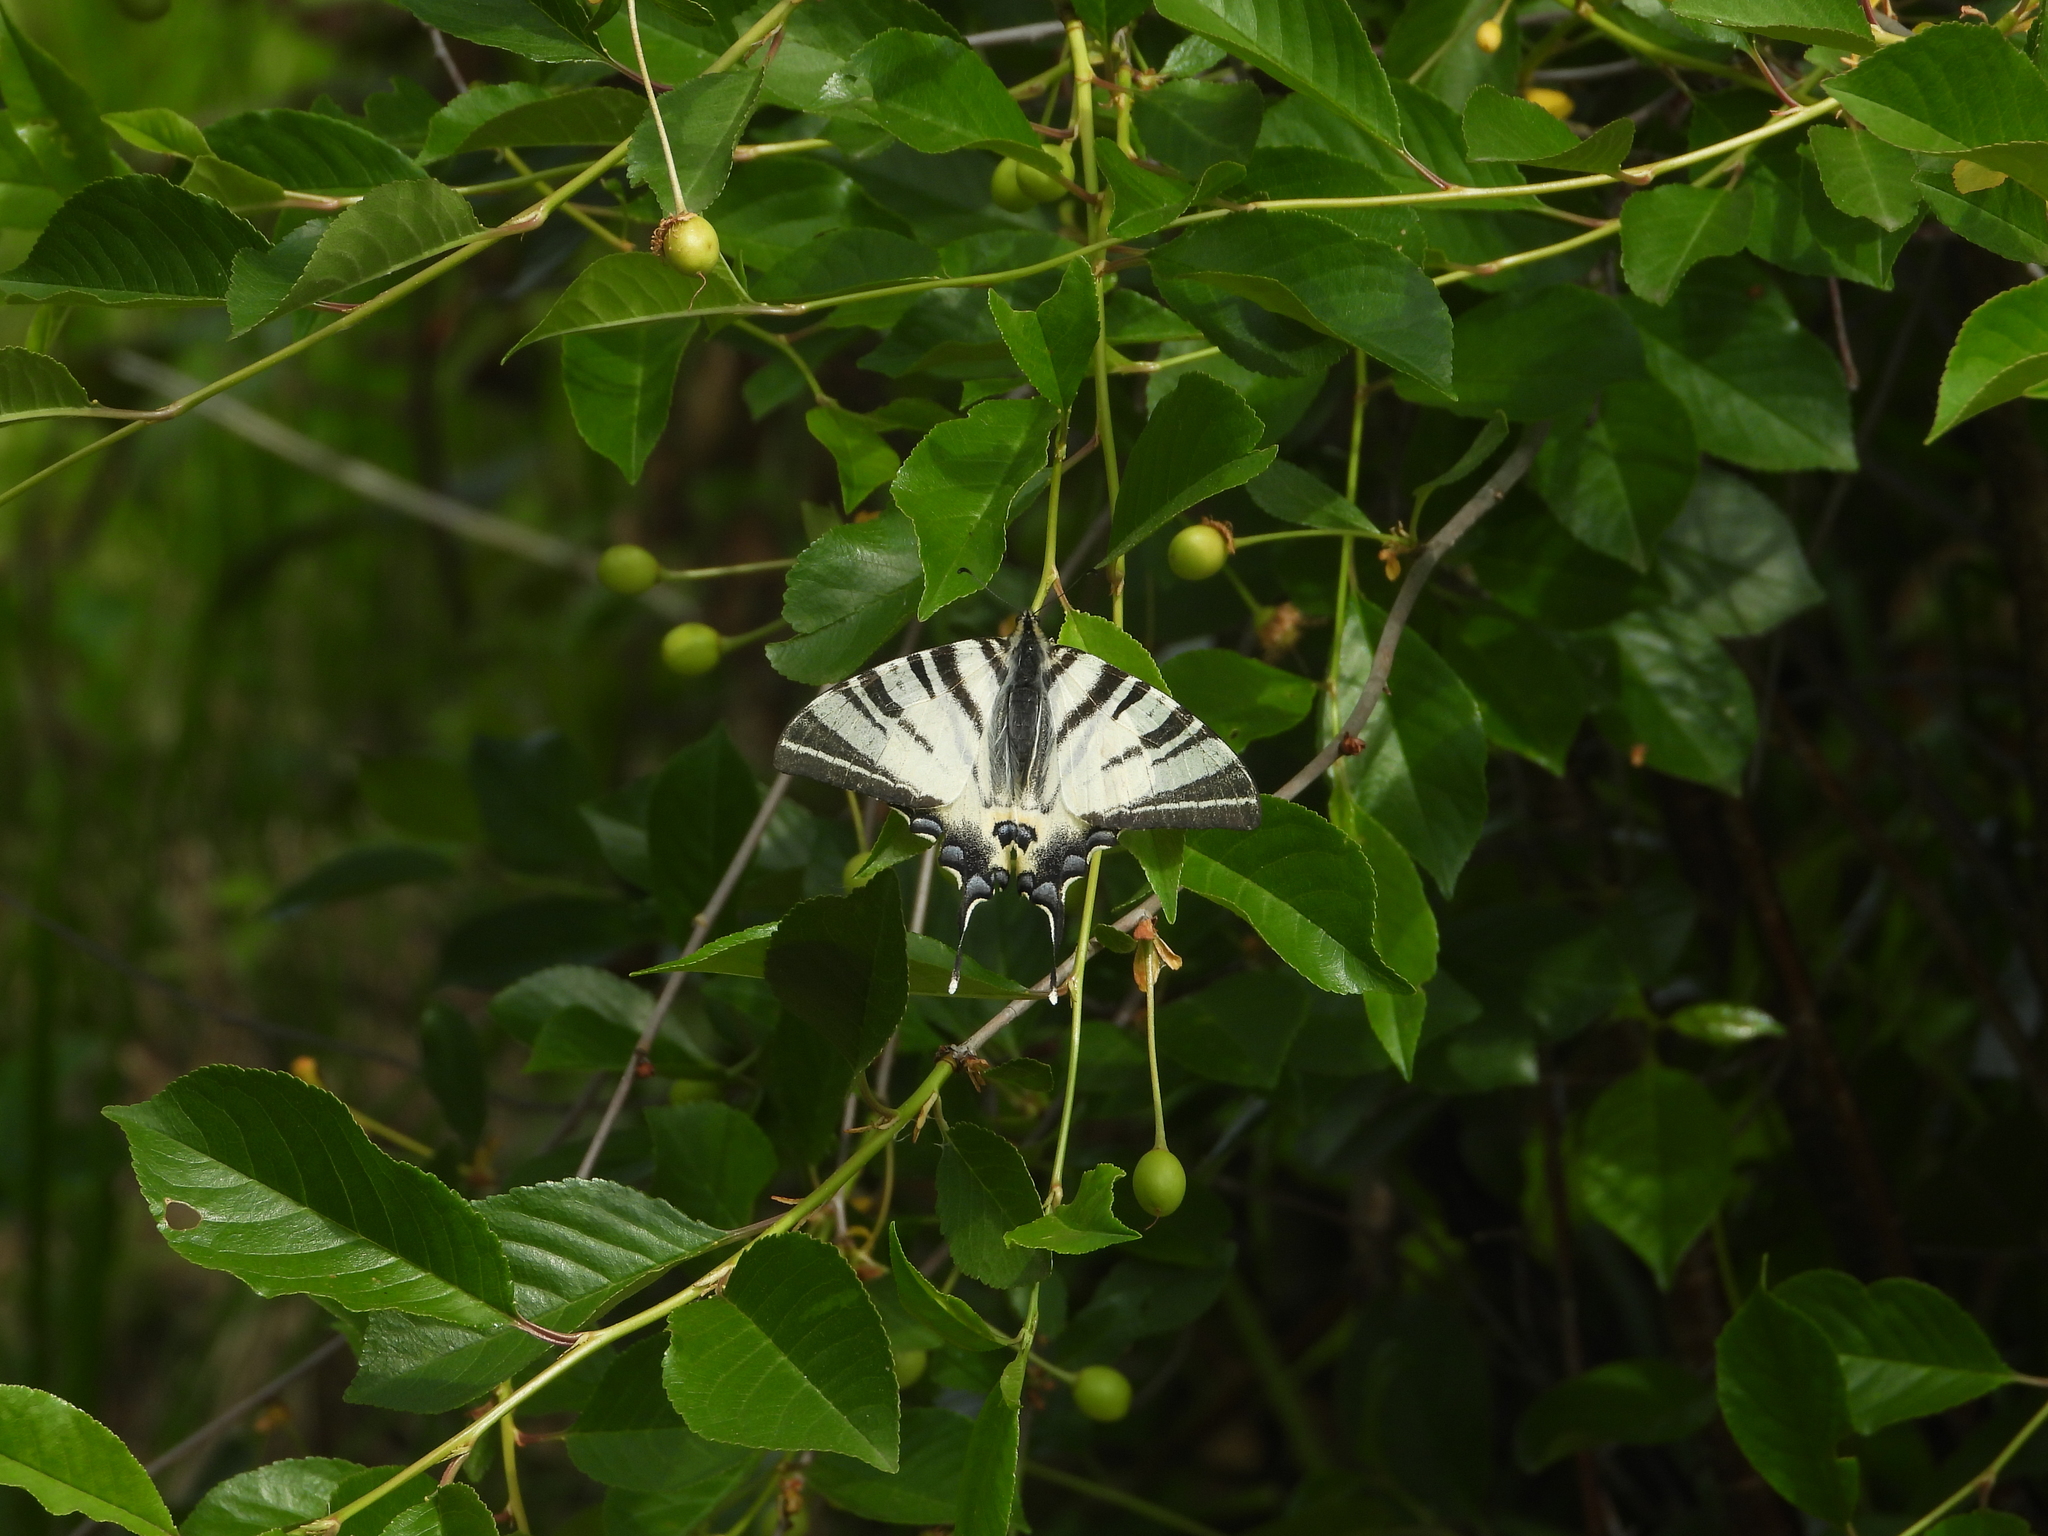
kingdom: Animalia
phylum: Arthropoda
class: Insecta
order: Lepidoptera
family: Papilionidae
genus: Iphiclides
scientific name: Iphiclides podalirius
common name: Scarce swallowtail
